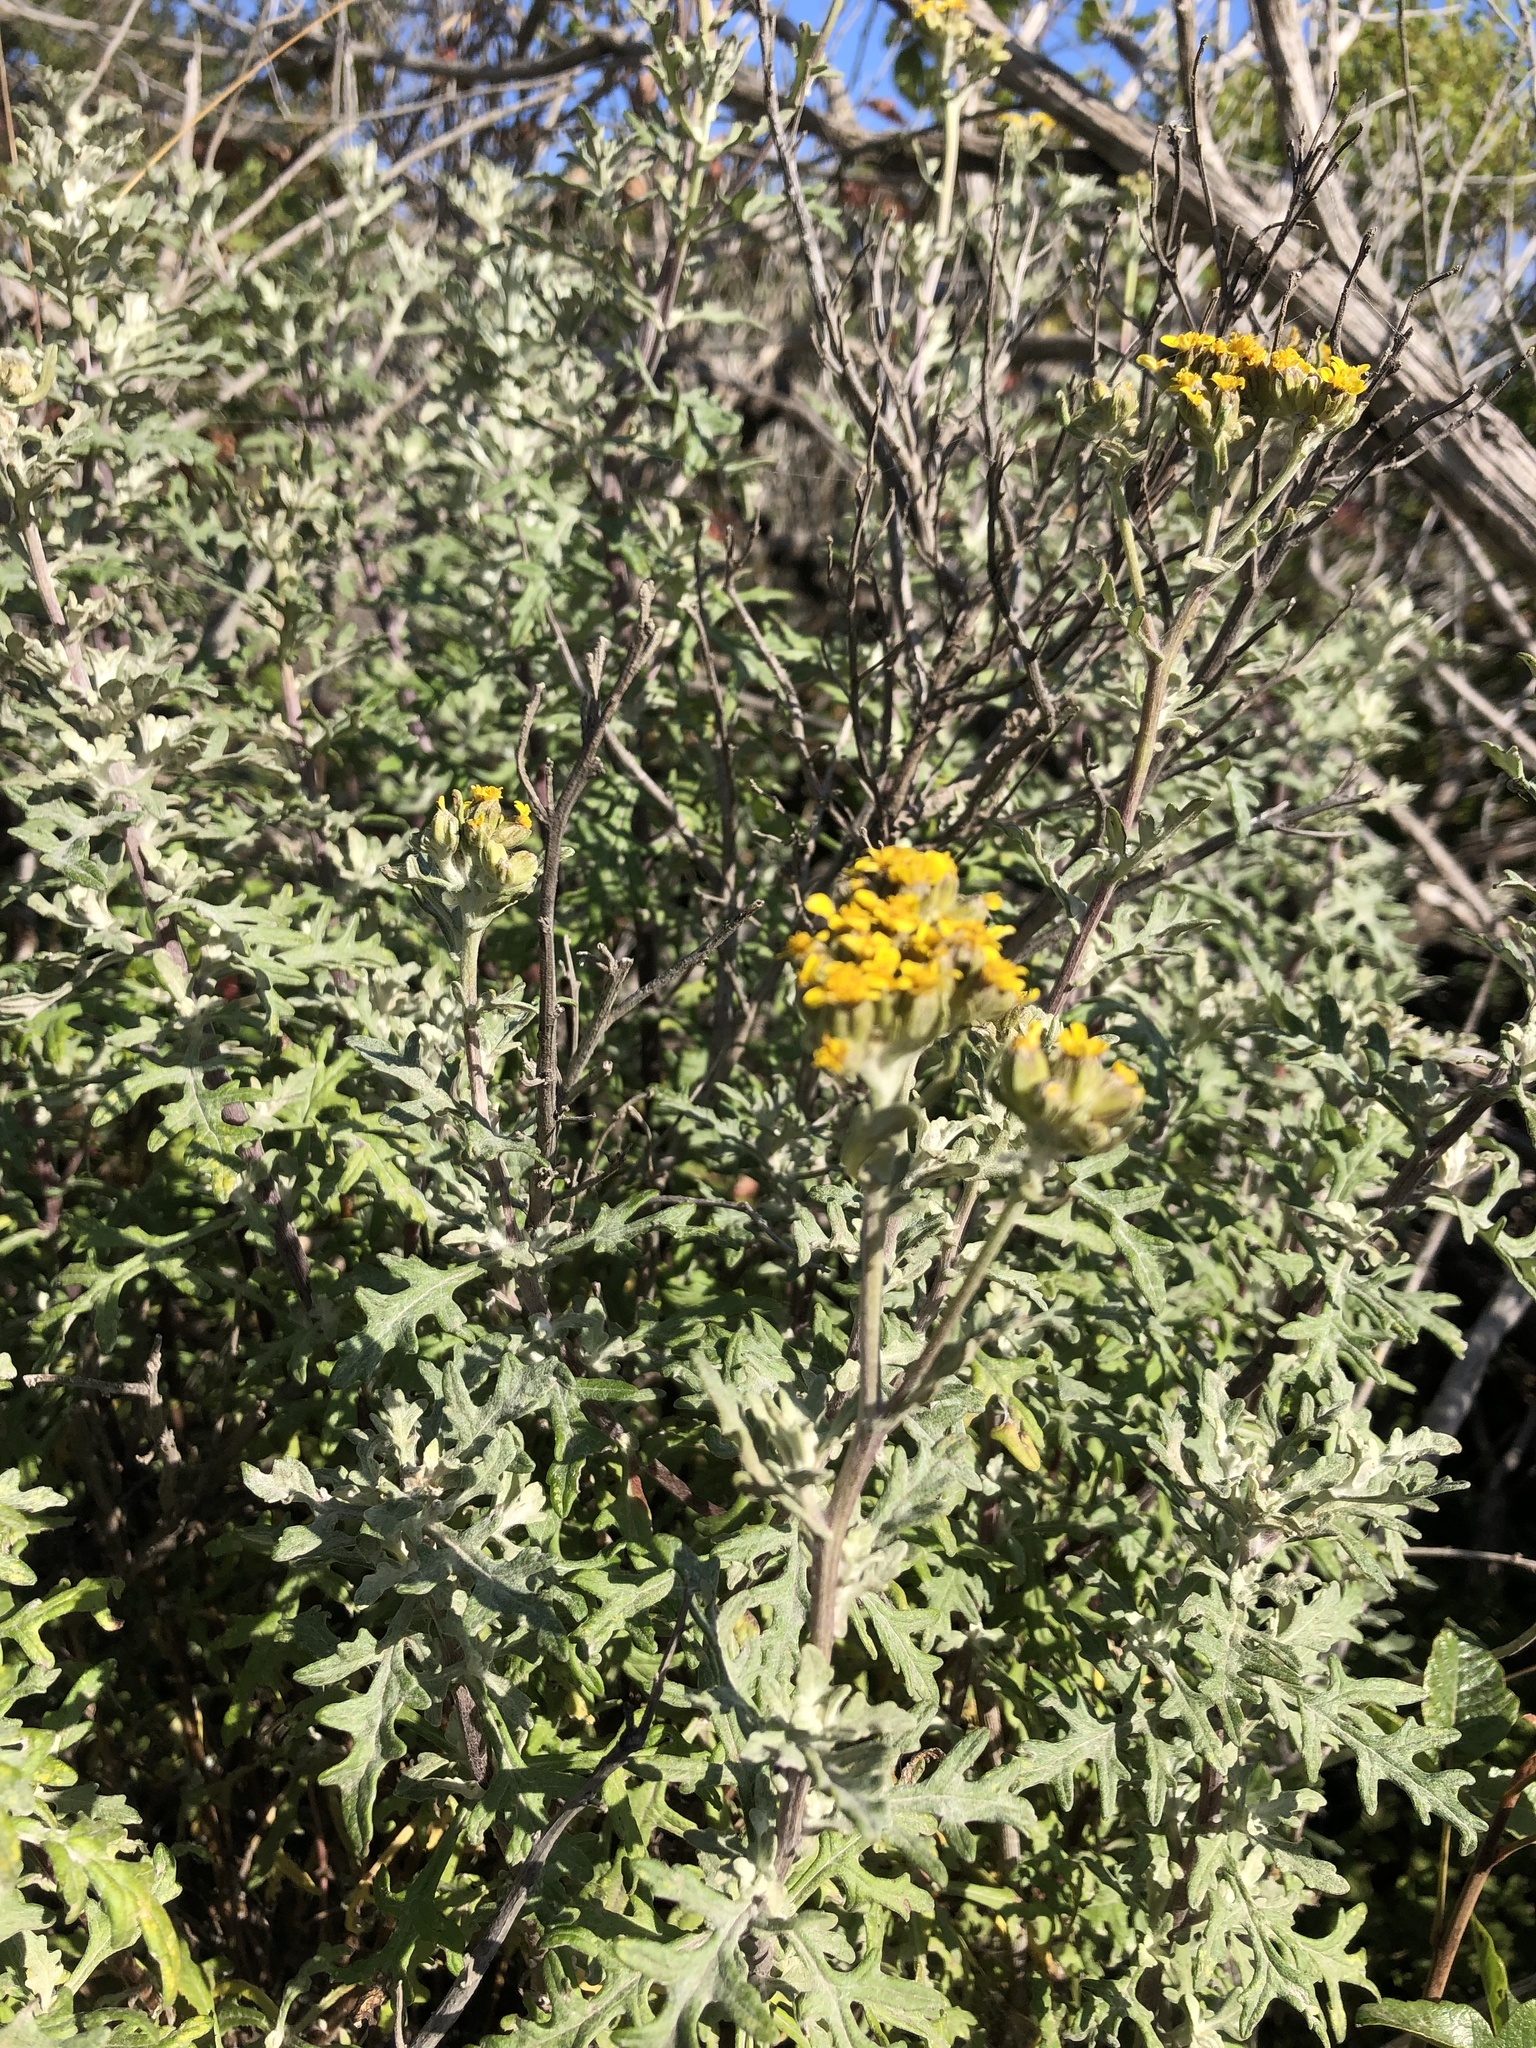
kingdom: Plantae
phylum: Tracheophyta
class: Magnoliopsida
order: Asterales
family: Asteraceae
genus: Eriophyllum
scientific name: Eriophyllum staechadifolium
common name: Lizardtail
